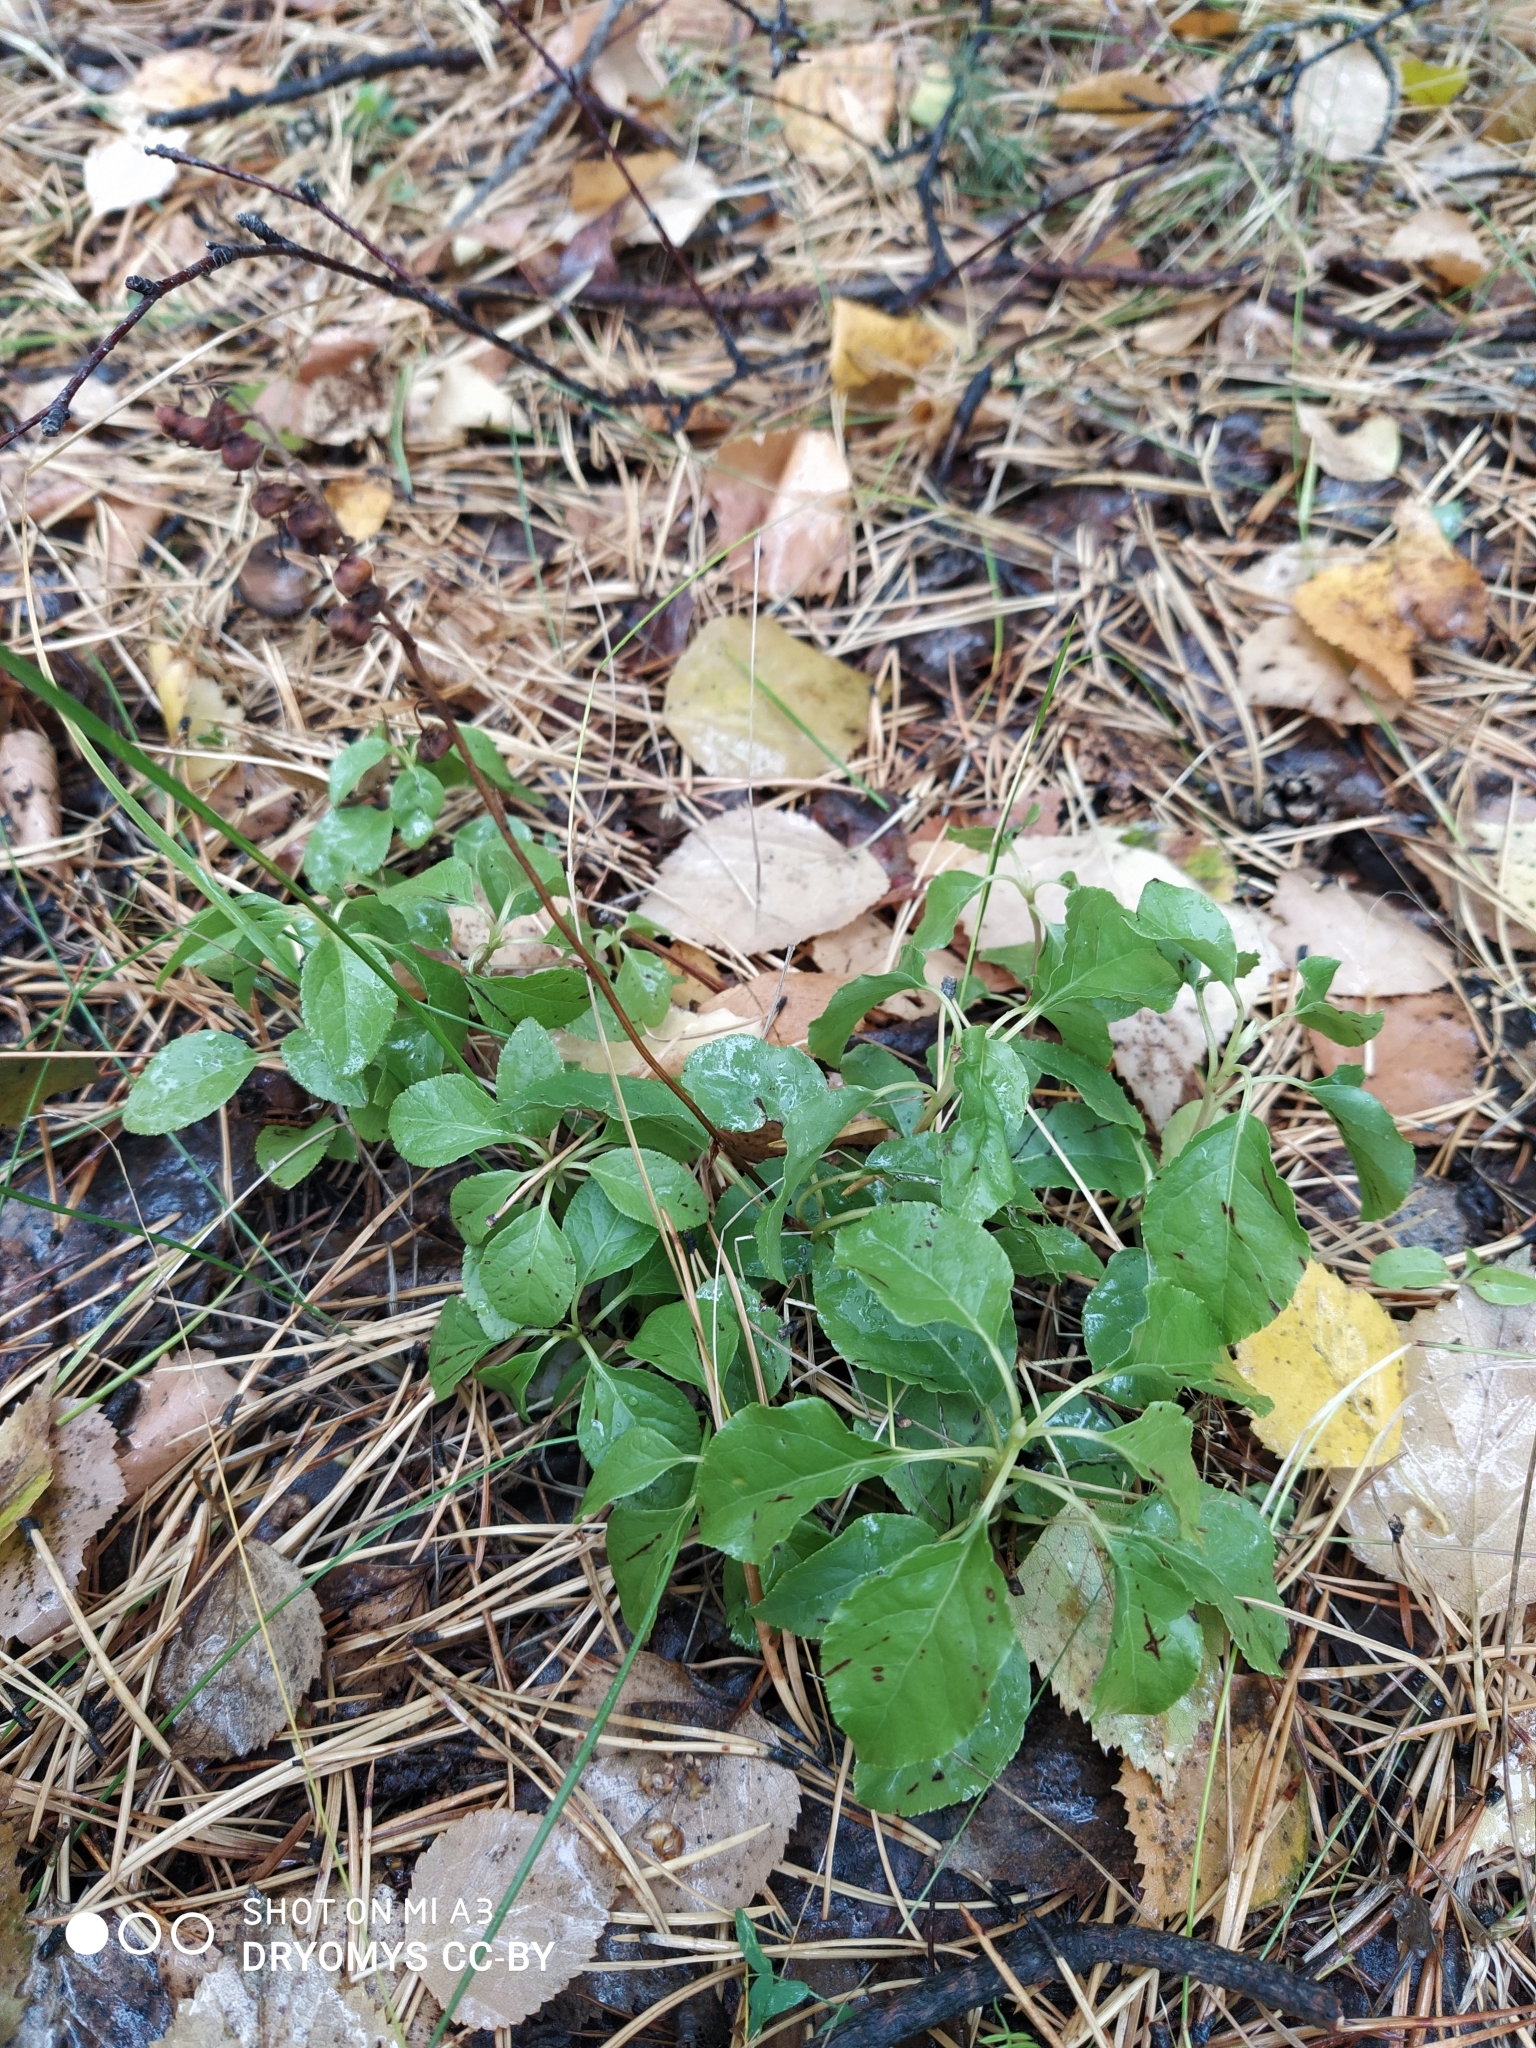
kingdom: Plantae
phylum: Tracheophyta
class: Magnoliopsida
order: Ericales
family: Ericaceae
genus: Orthilia
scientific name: Orthilia secunda
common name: One-sided orthilia
